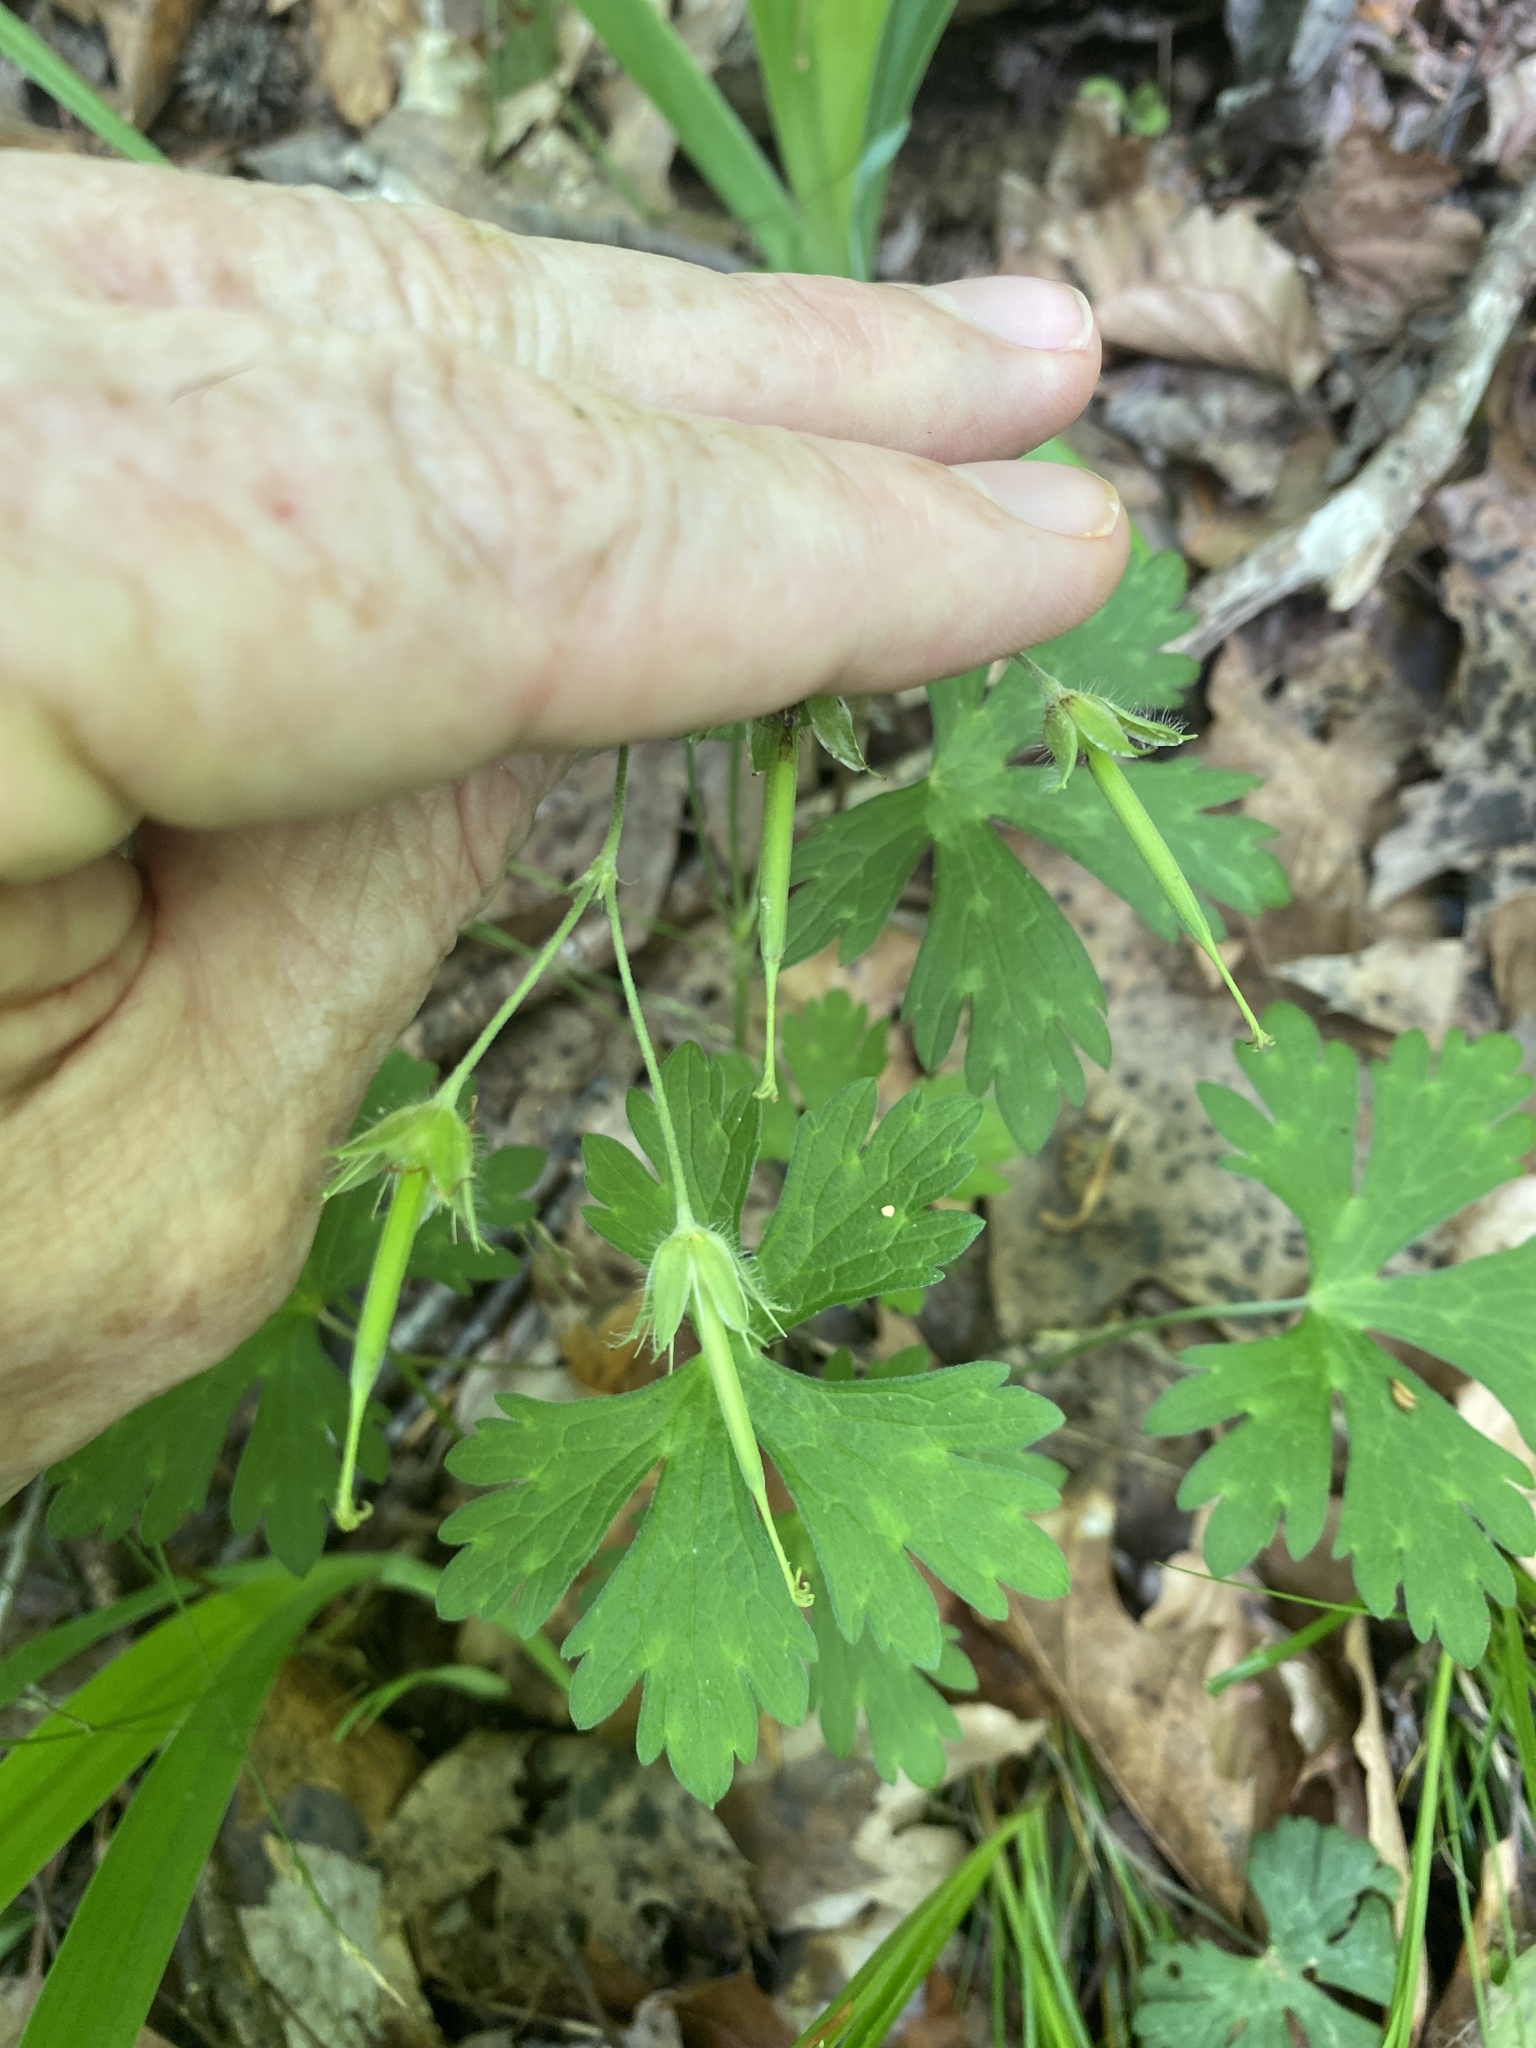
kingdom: Plantae
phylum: Tracheophyta
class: Magnoliopsida
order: Geraniales
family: Geraniaceae
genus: Geranium
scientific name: Geranium maculatum
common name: Spotted geranium
